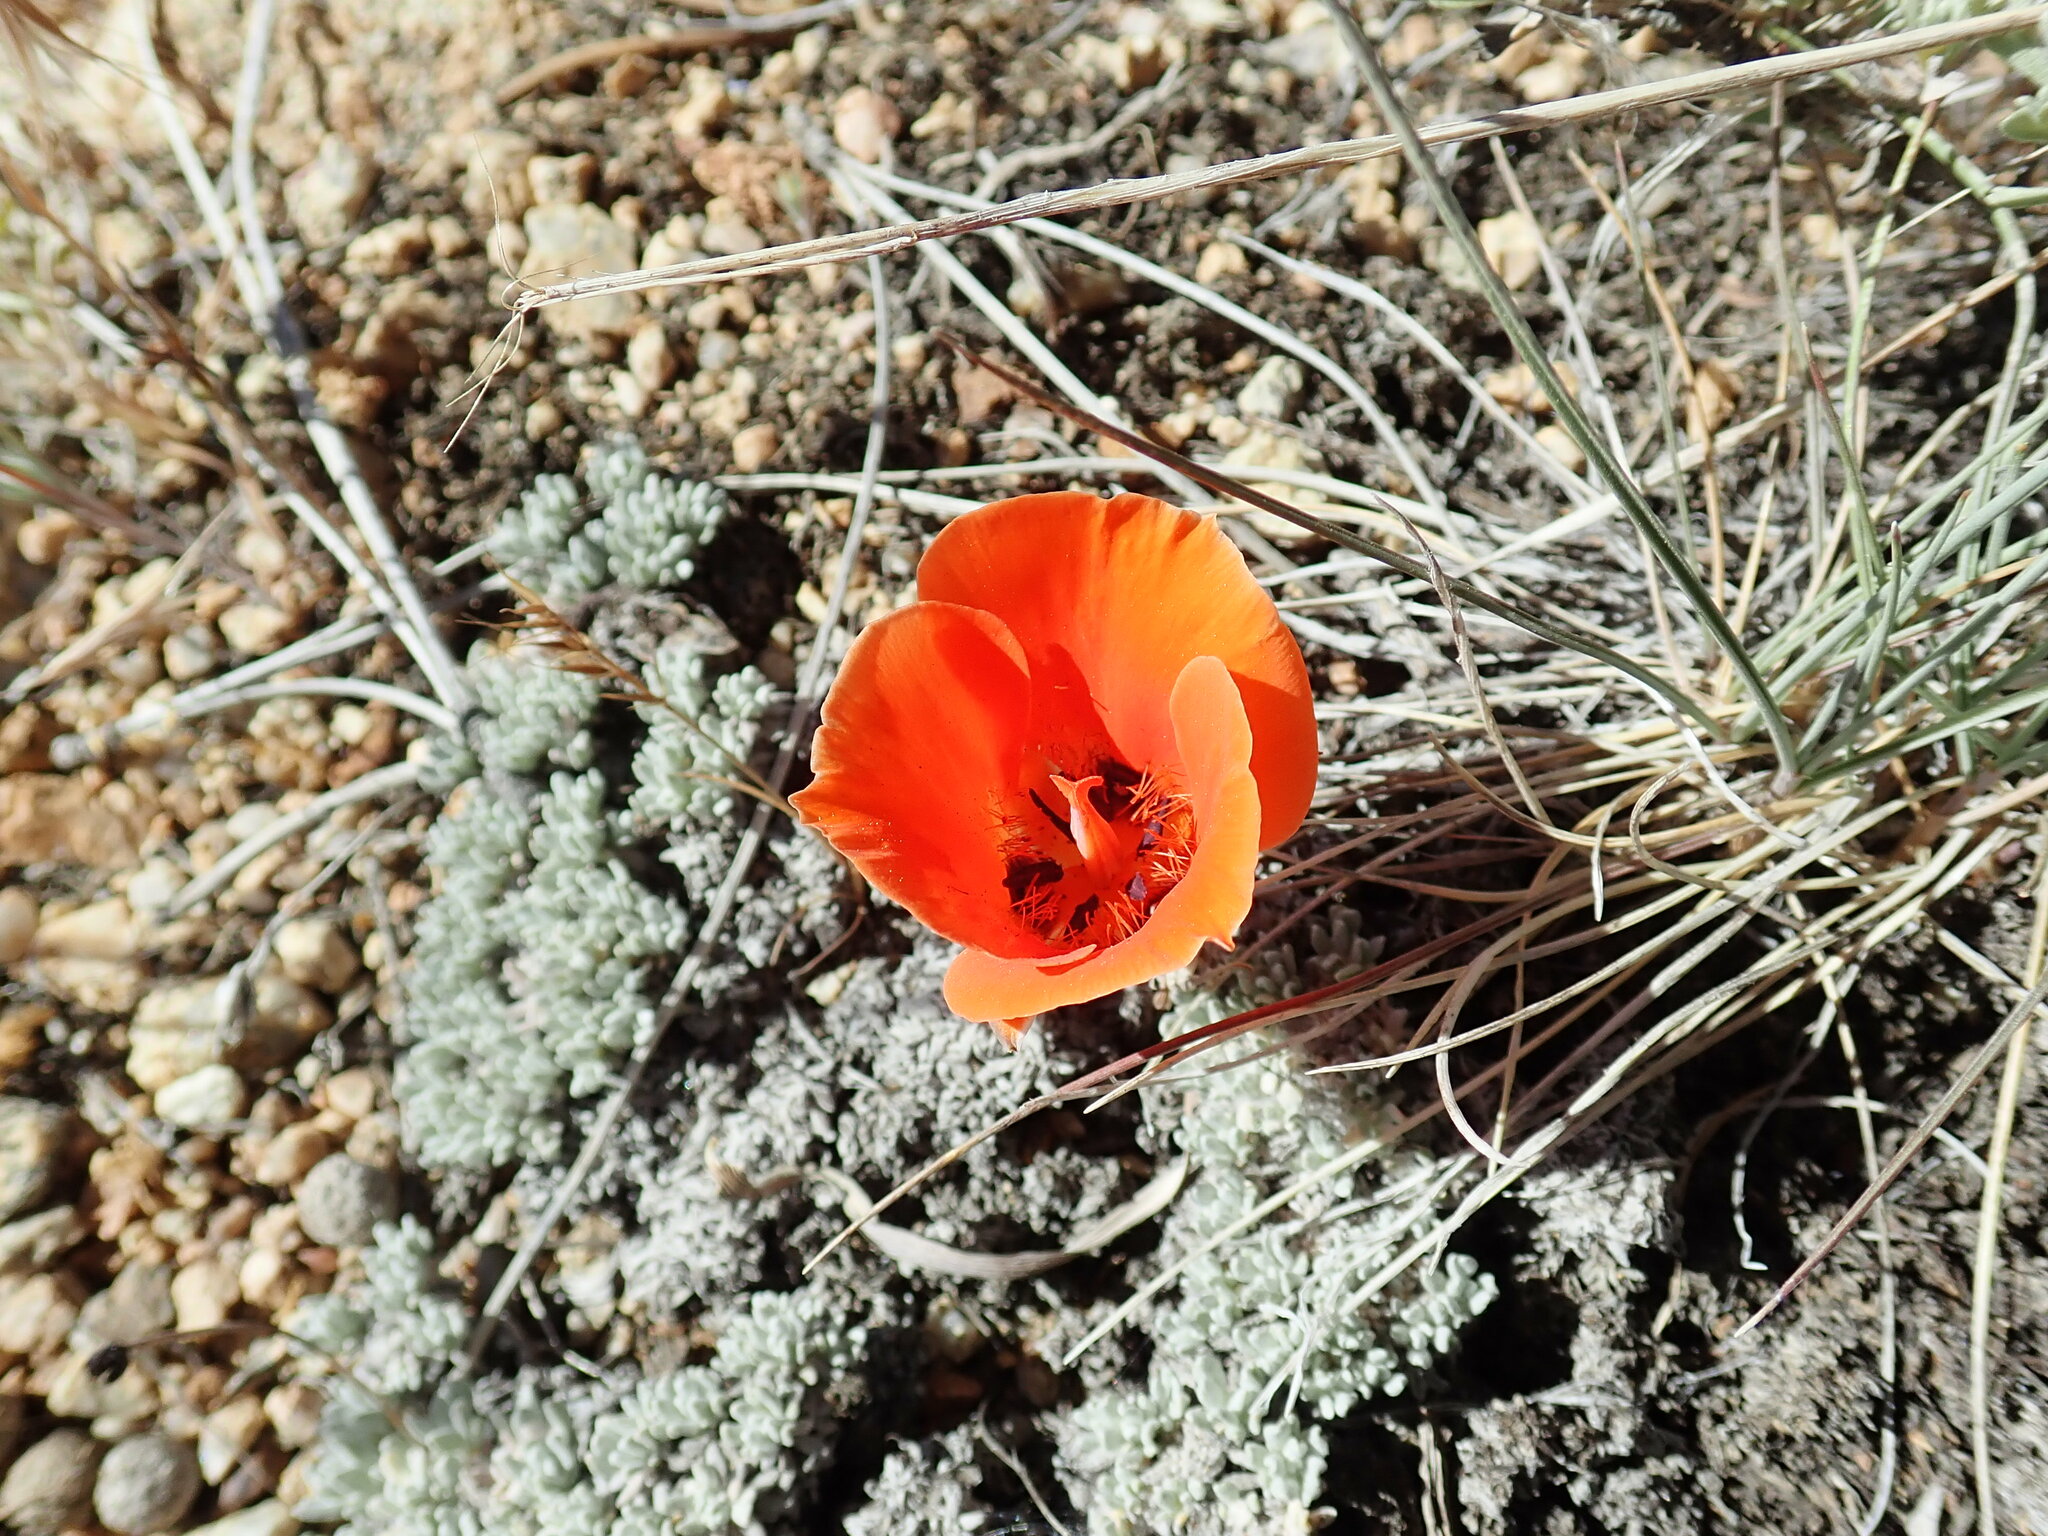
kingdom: Plantae
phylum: Tracheophyta
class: Liliopsida
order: Liliales
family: Liliaceae
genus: Calochortus
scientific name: Calochortus kennedyi
